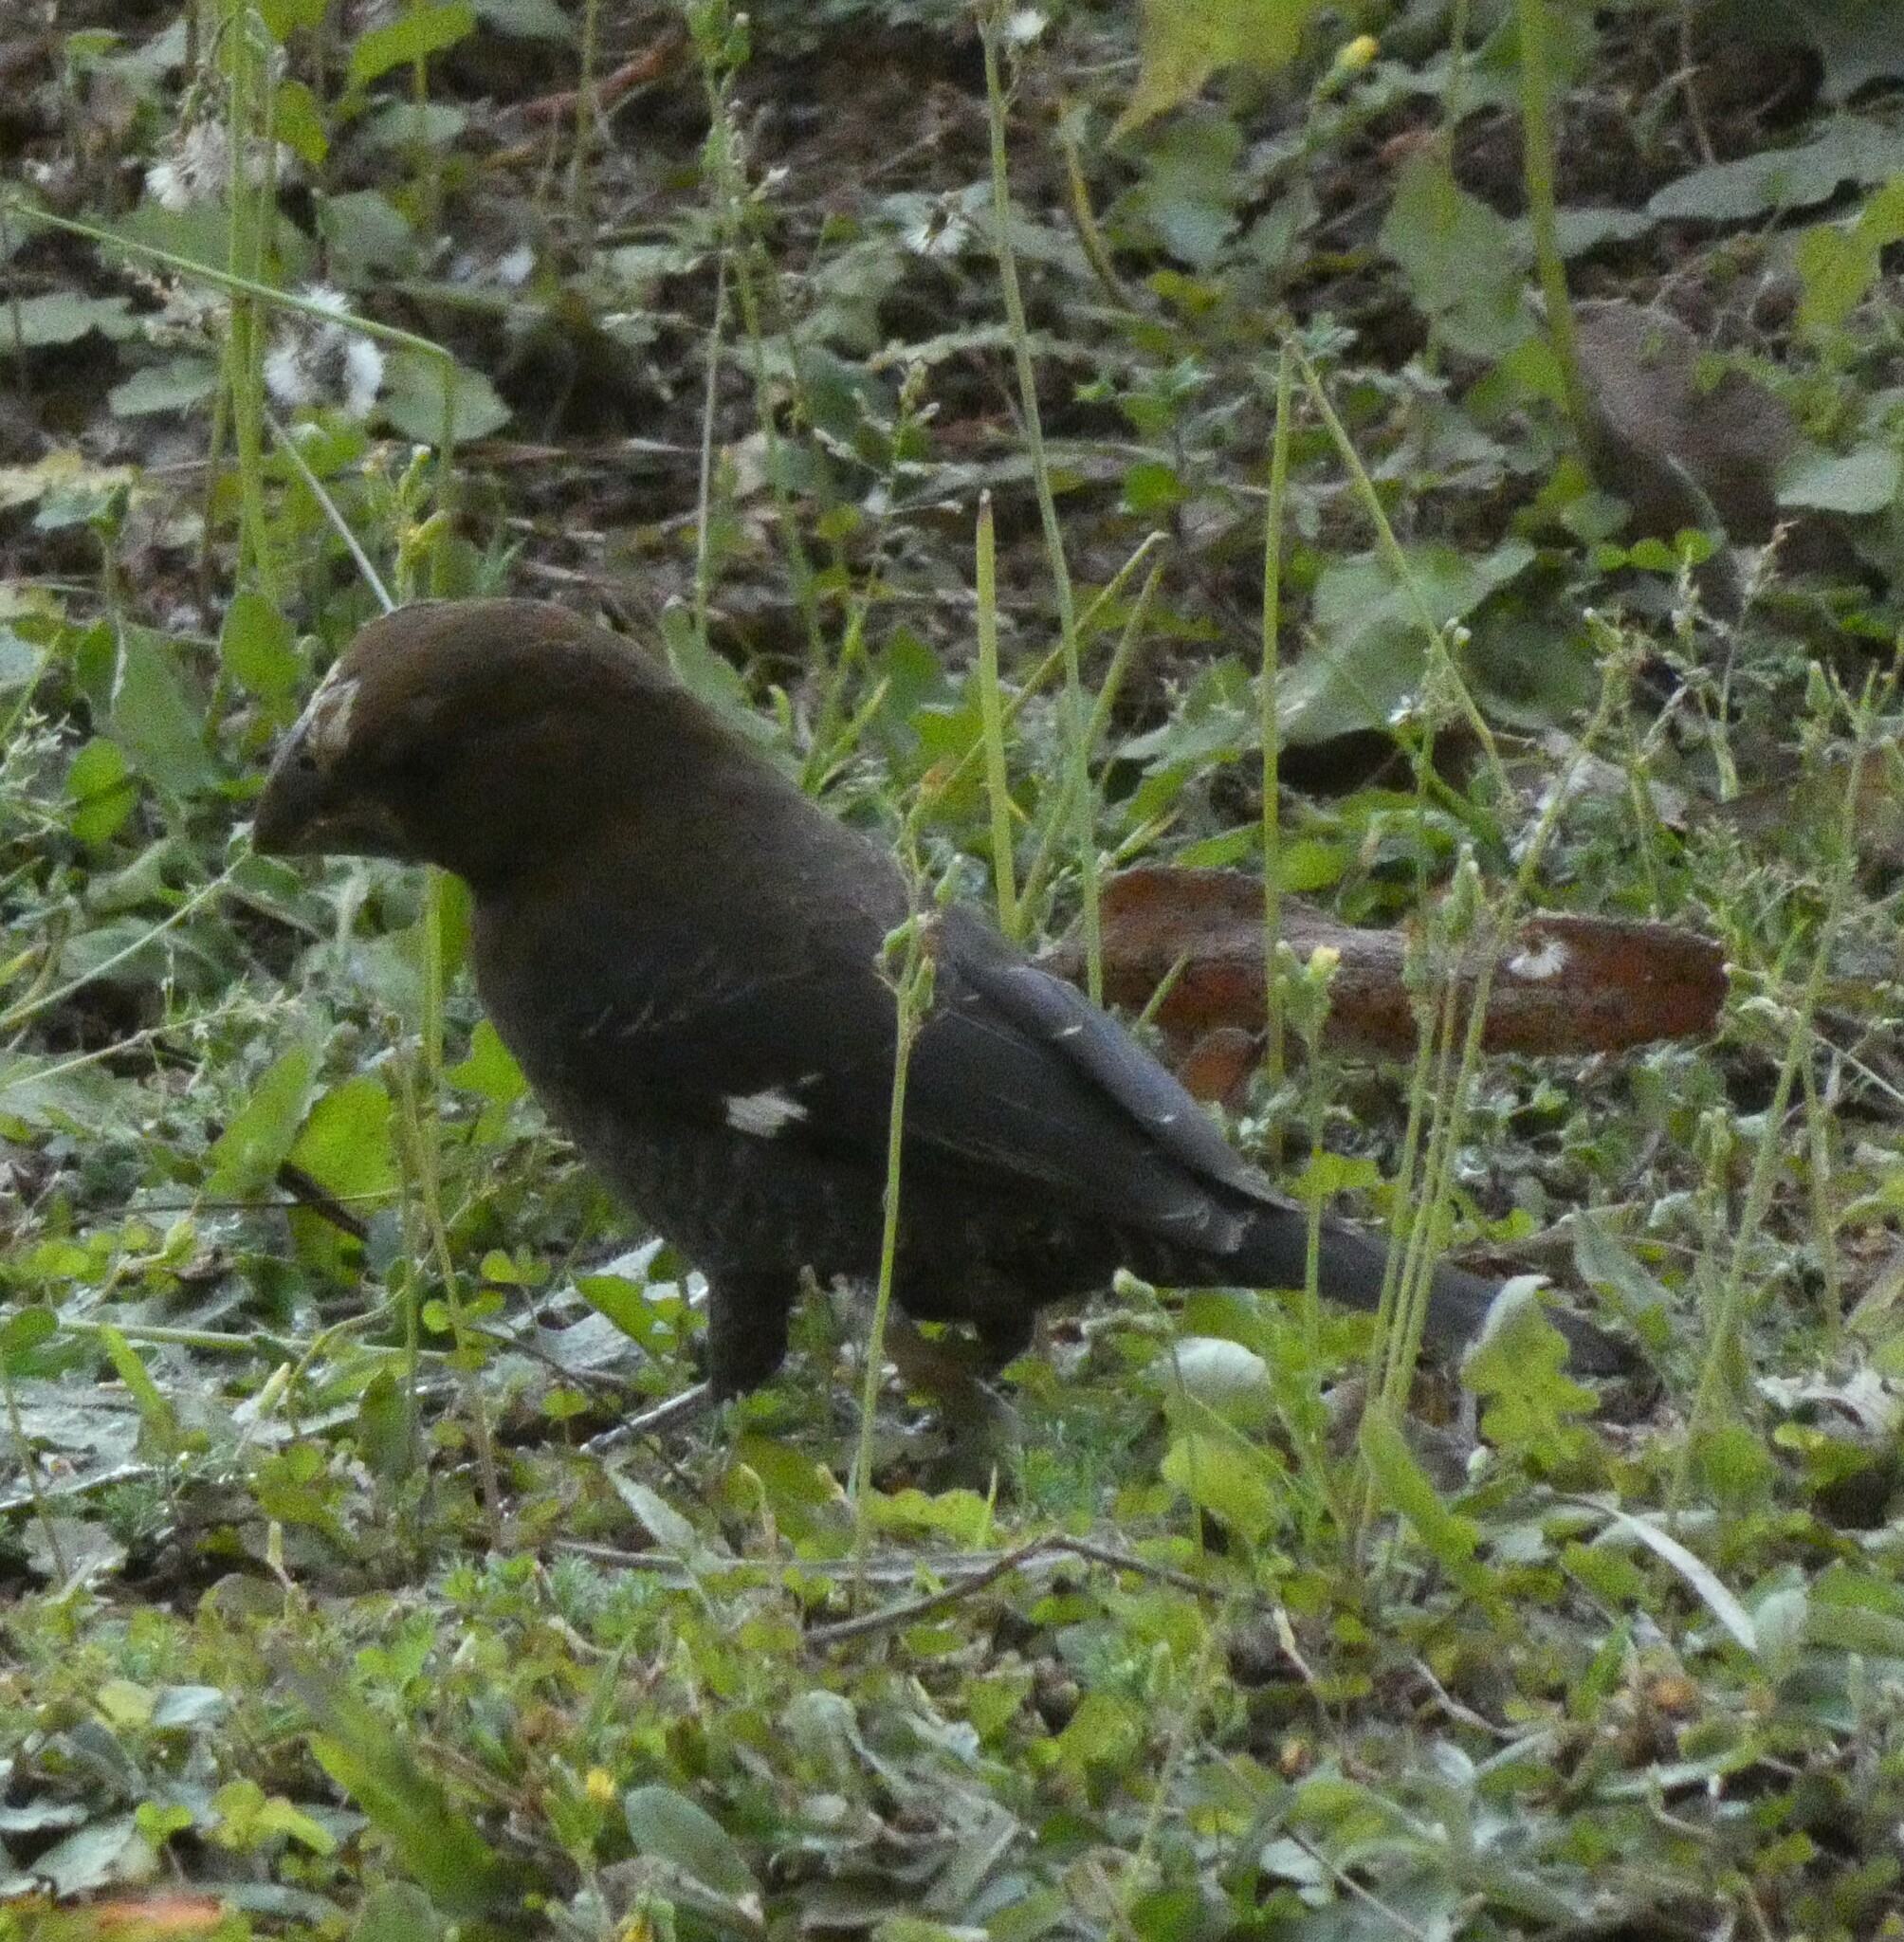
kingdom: Animalia
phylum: Chordata
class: Aves
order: Passeriformes
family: Ploceidae
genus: Amblyospiza
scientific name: Amblyospiza albifrons
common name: Thick-billed weaver
